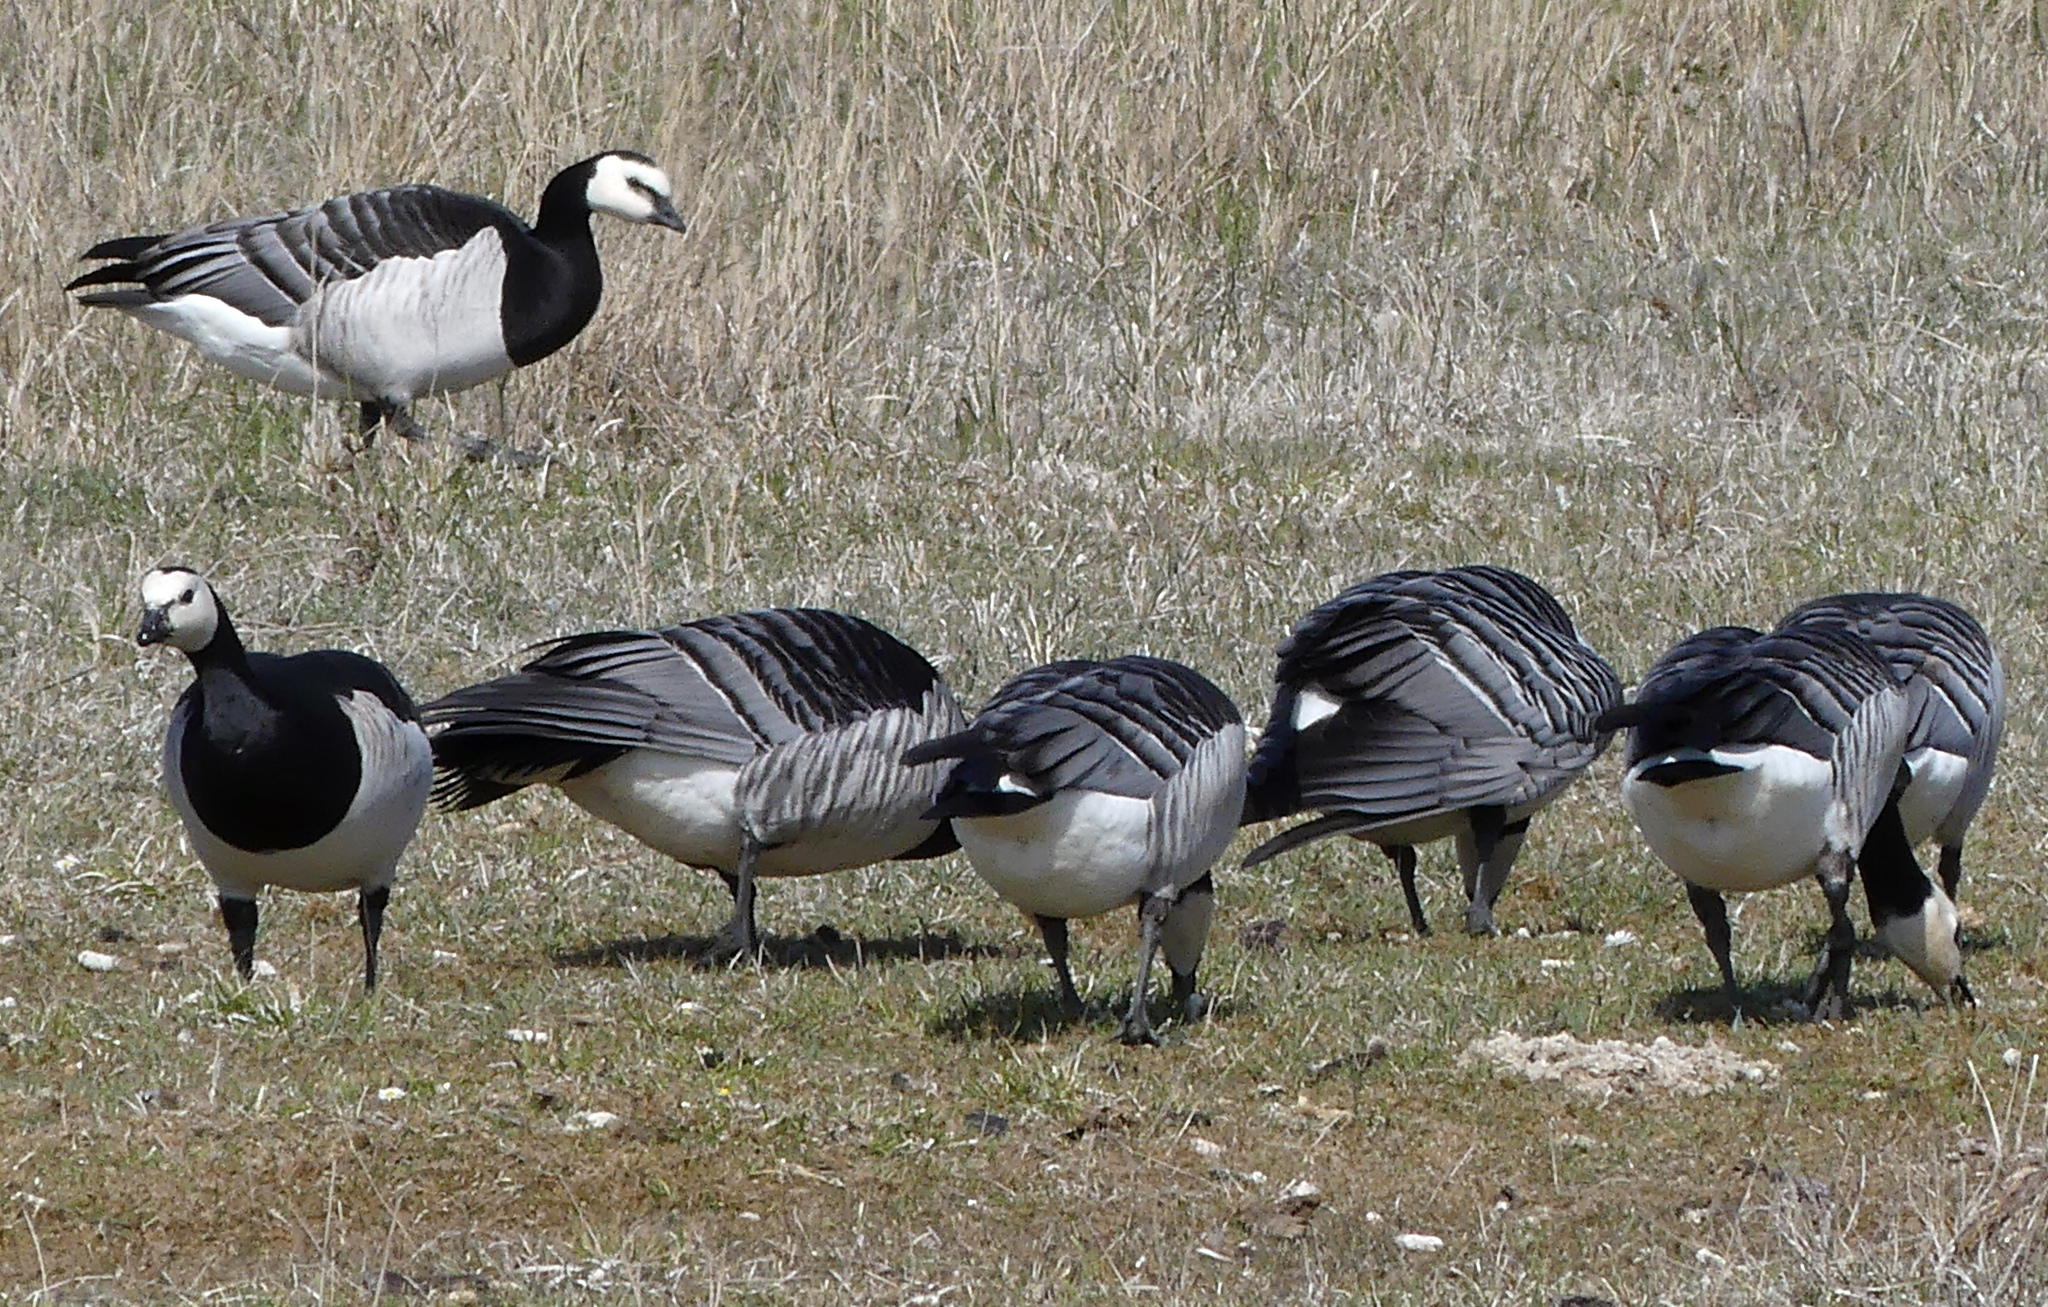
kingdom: Animalia
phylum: Chordata
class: Aves
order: Anseriformes
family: Anatidae
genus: Branta
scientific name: Branta leucopsis
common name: Barnacle goose
